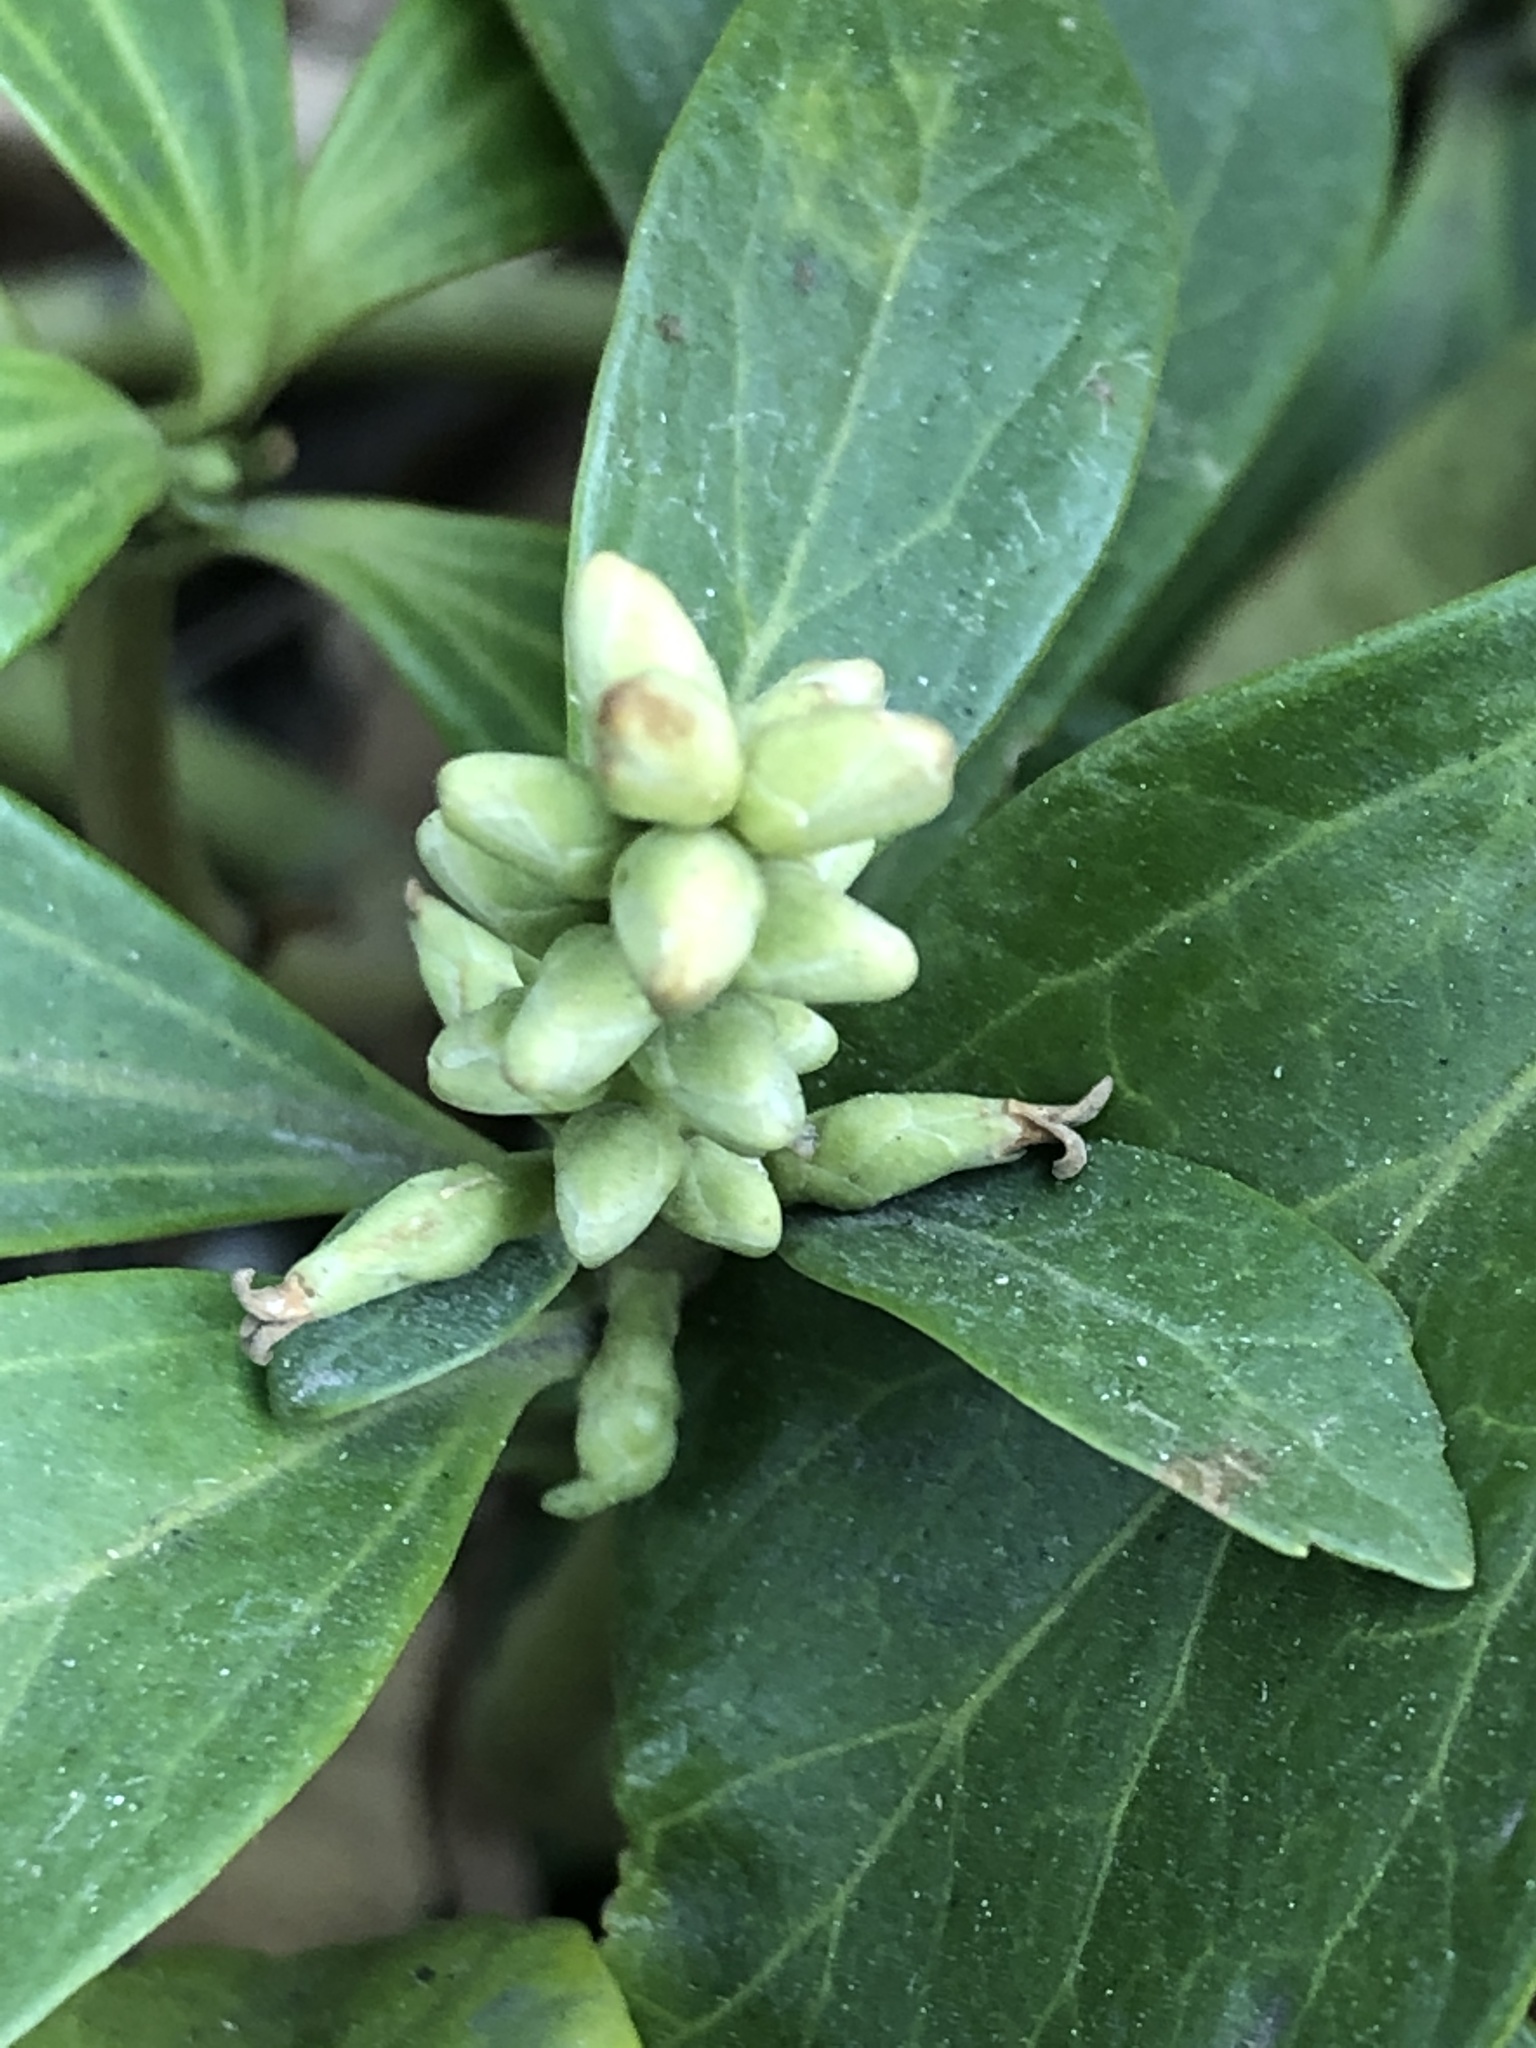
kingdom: Plantae
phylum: Tracheophyta
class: Magnoliopsida
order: Buxales
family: Buxaceae
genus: Pachysandra
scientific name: Pachysandra terminalis
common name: Japanese pachysandra
